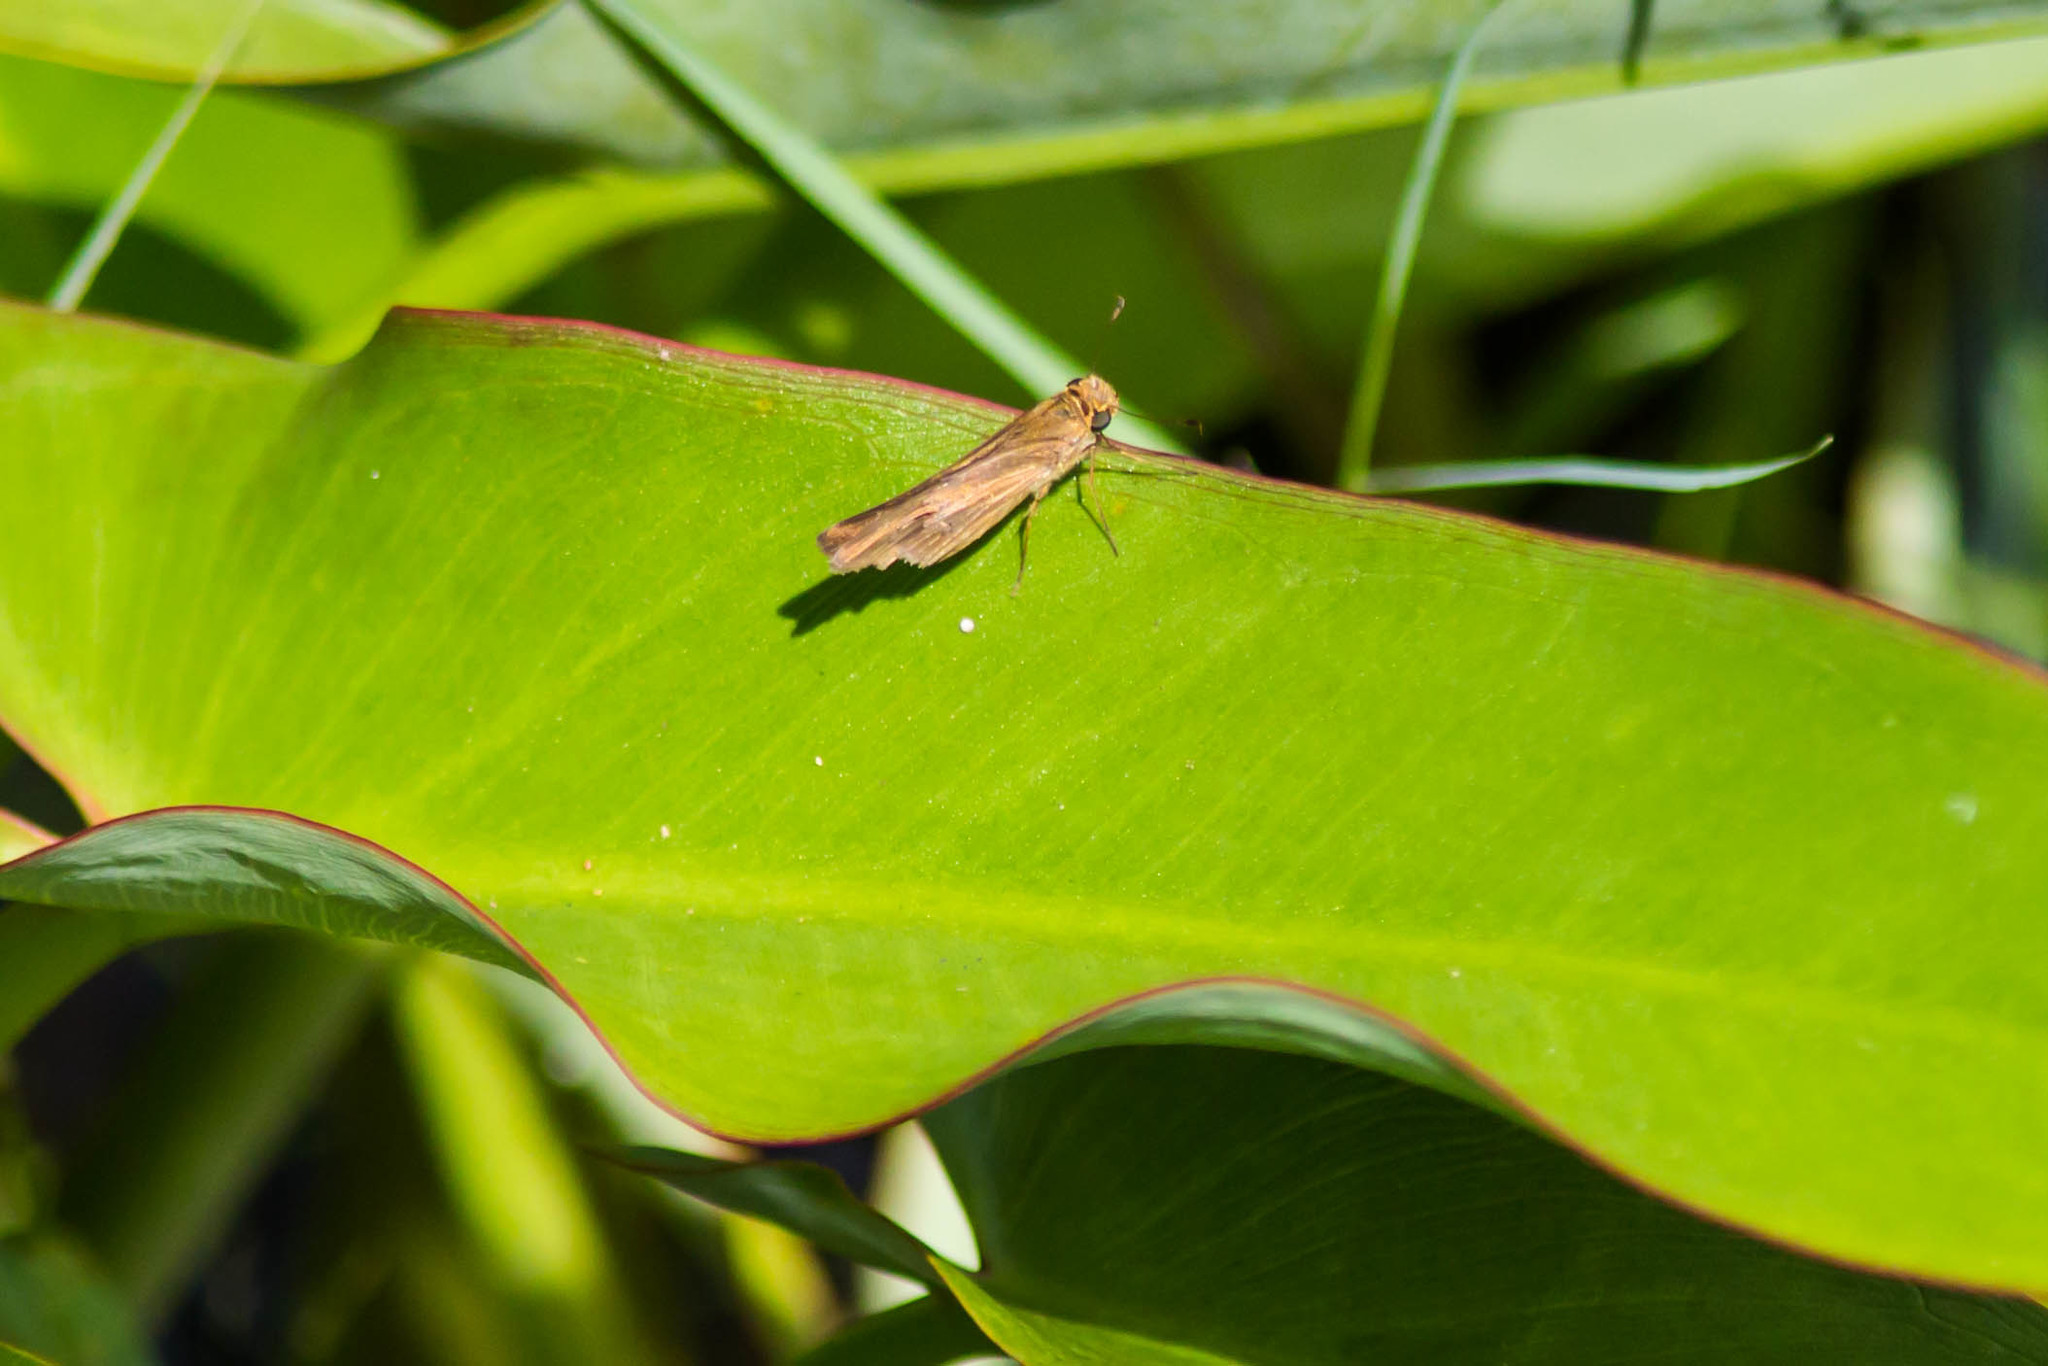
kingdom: Animalia
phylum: Arthropoda
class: Insecta
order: Lepidoptera
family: Hesperiidae
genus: Panoquina
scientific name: Panoquina ocola
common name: Ocola skipper
